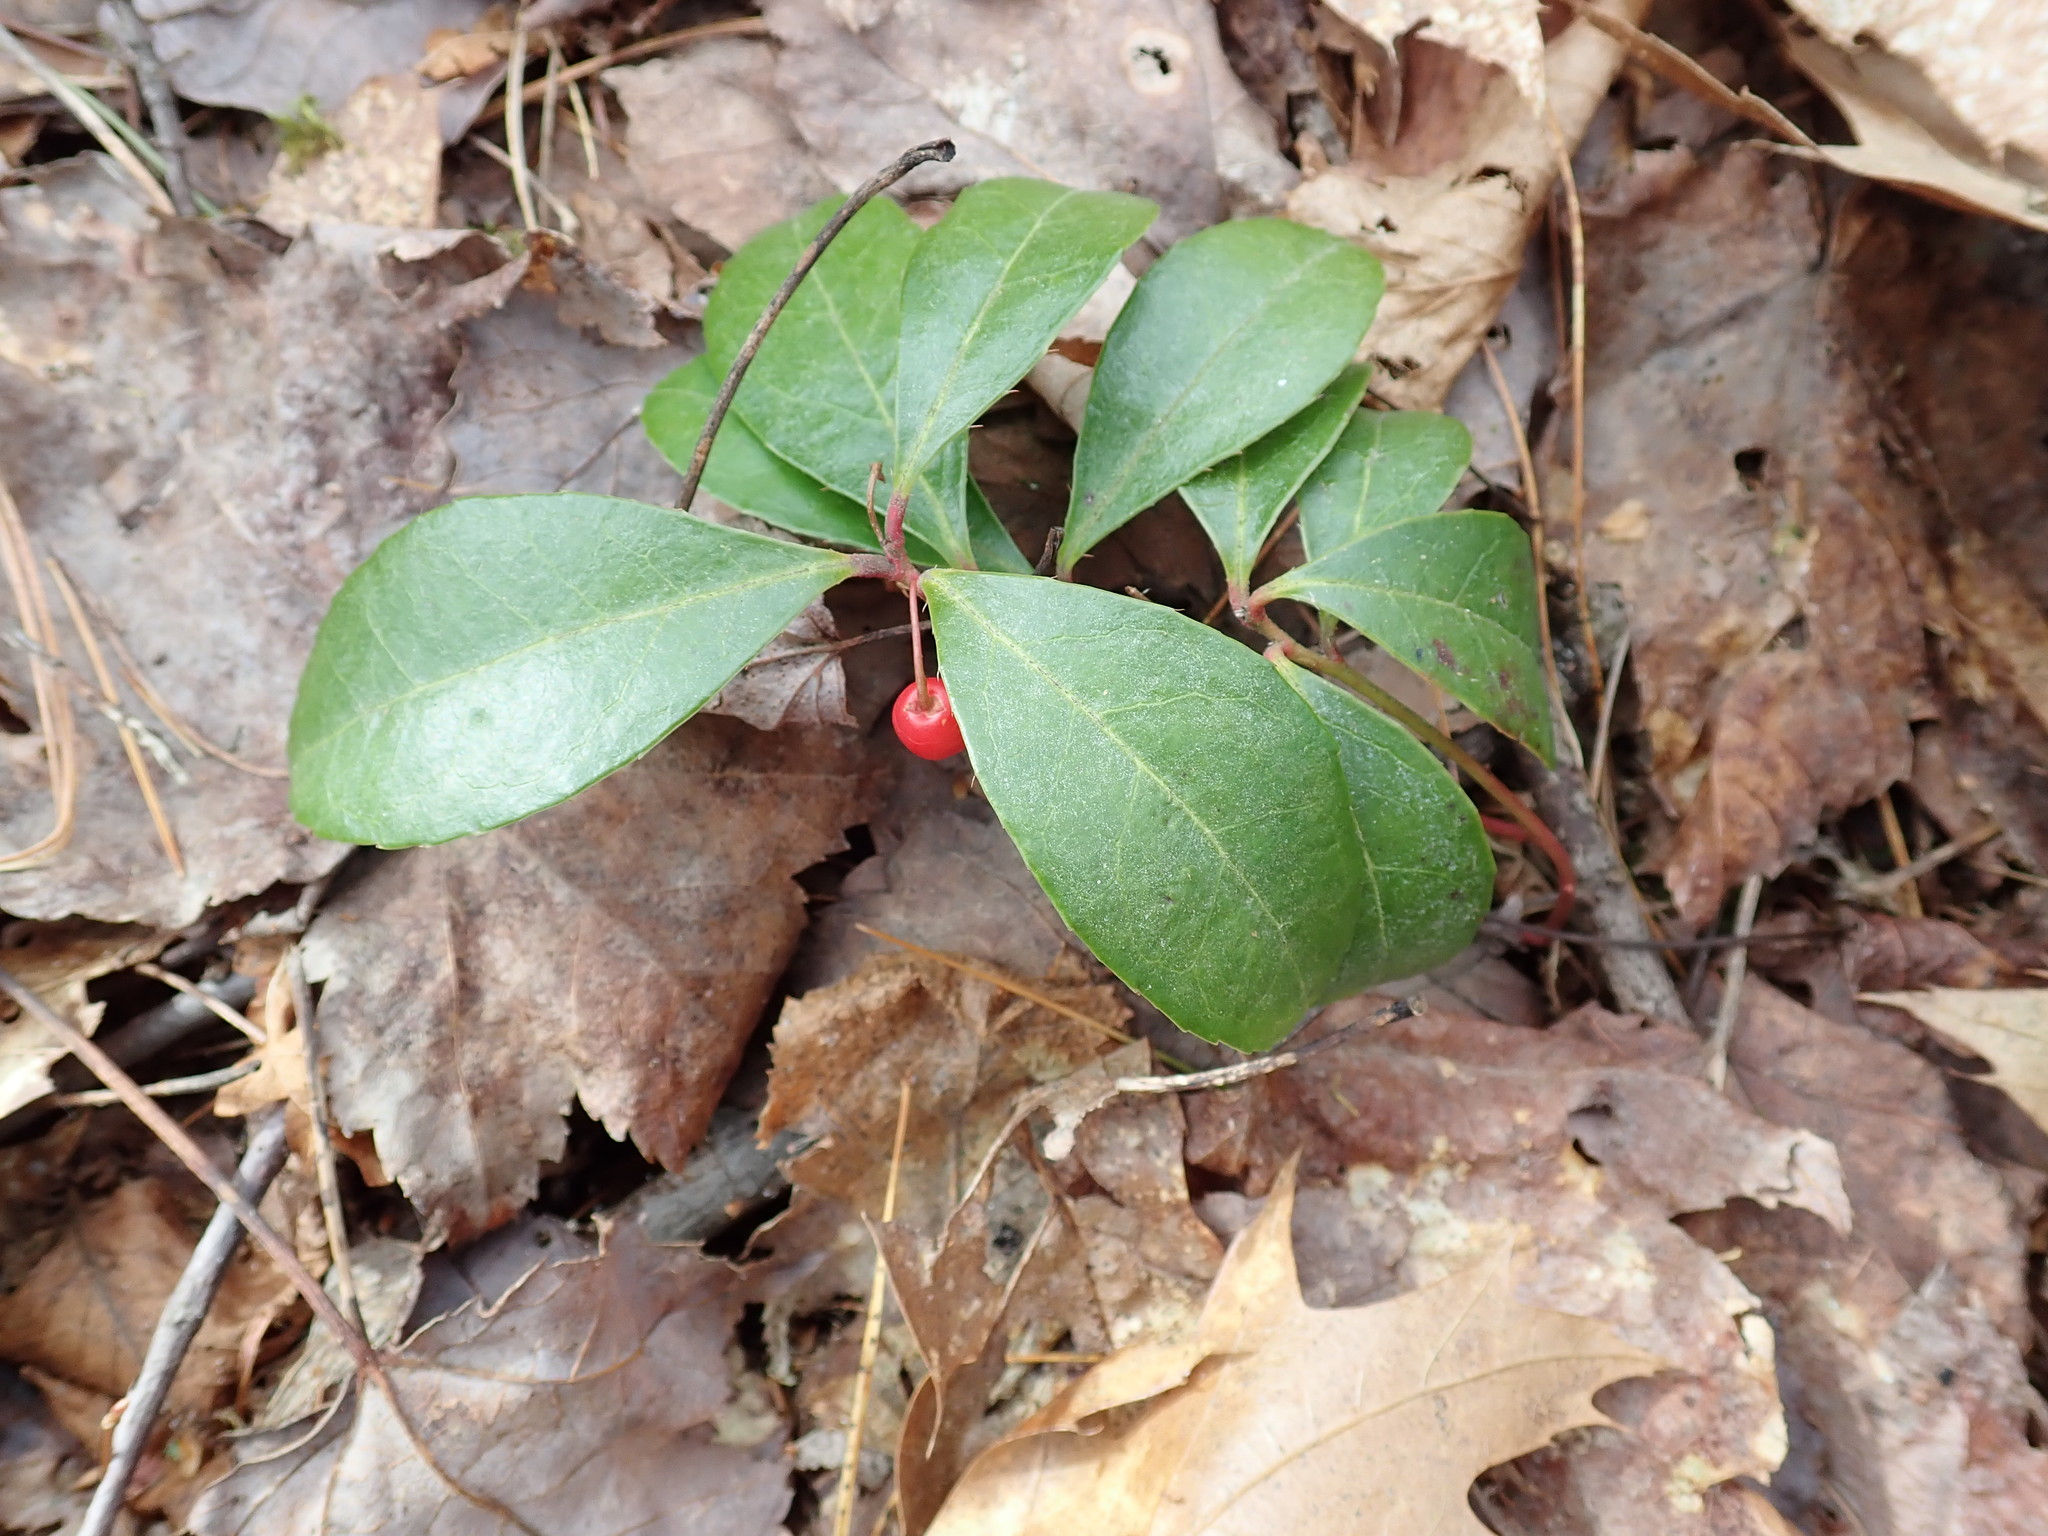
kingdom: Plantae
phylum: Tracheophyta
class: Magnoliopsida
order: Ericales
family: Ericaceae
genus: Gaultheria
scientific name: Gaultheria procumbens
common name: Checkerberry
